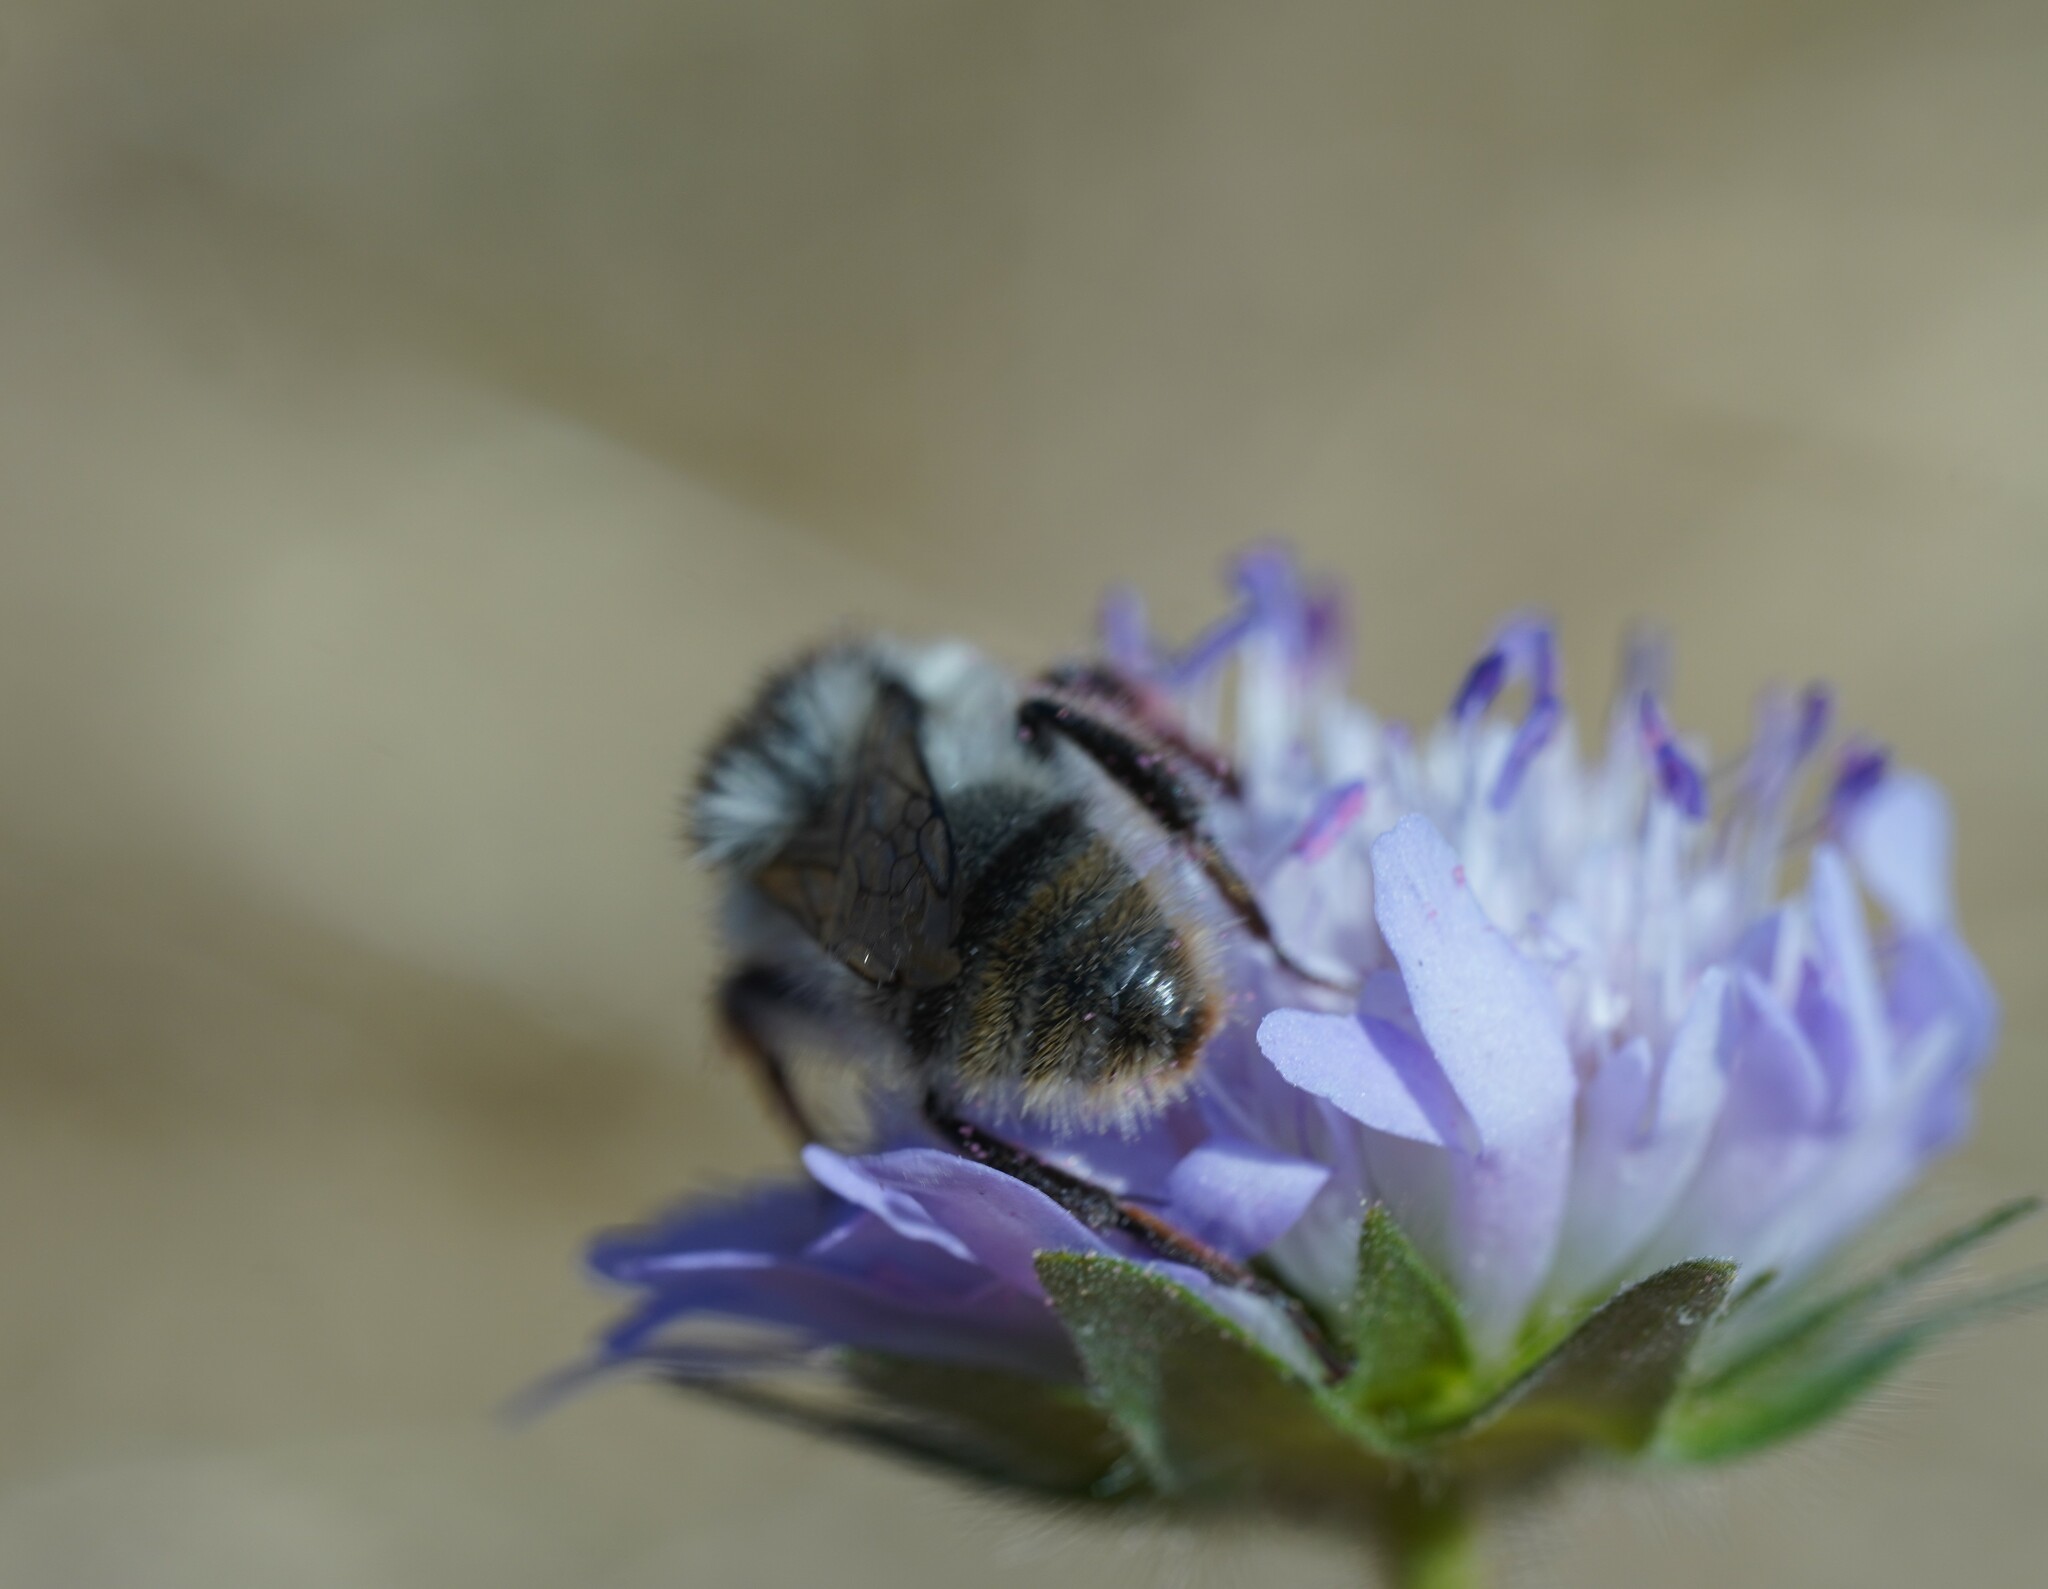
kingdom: Animalia
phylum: Arthropoda
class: Insecta
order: Hymenoptera
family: Apidae
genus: Bombus
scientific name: Bombus sylvarum
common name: Shrill carder bee
